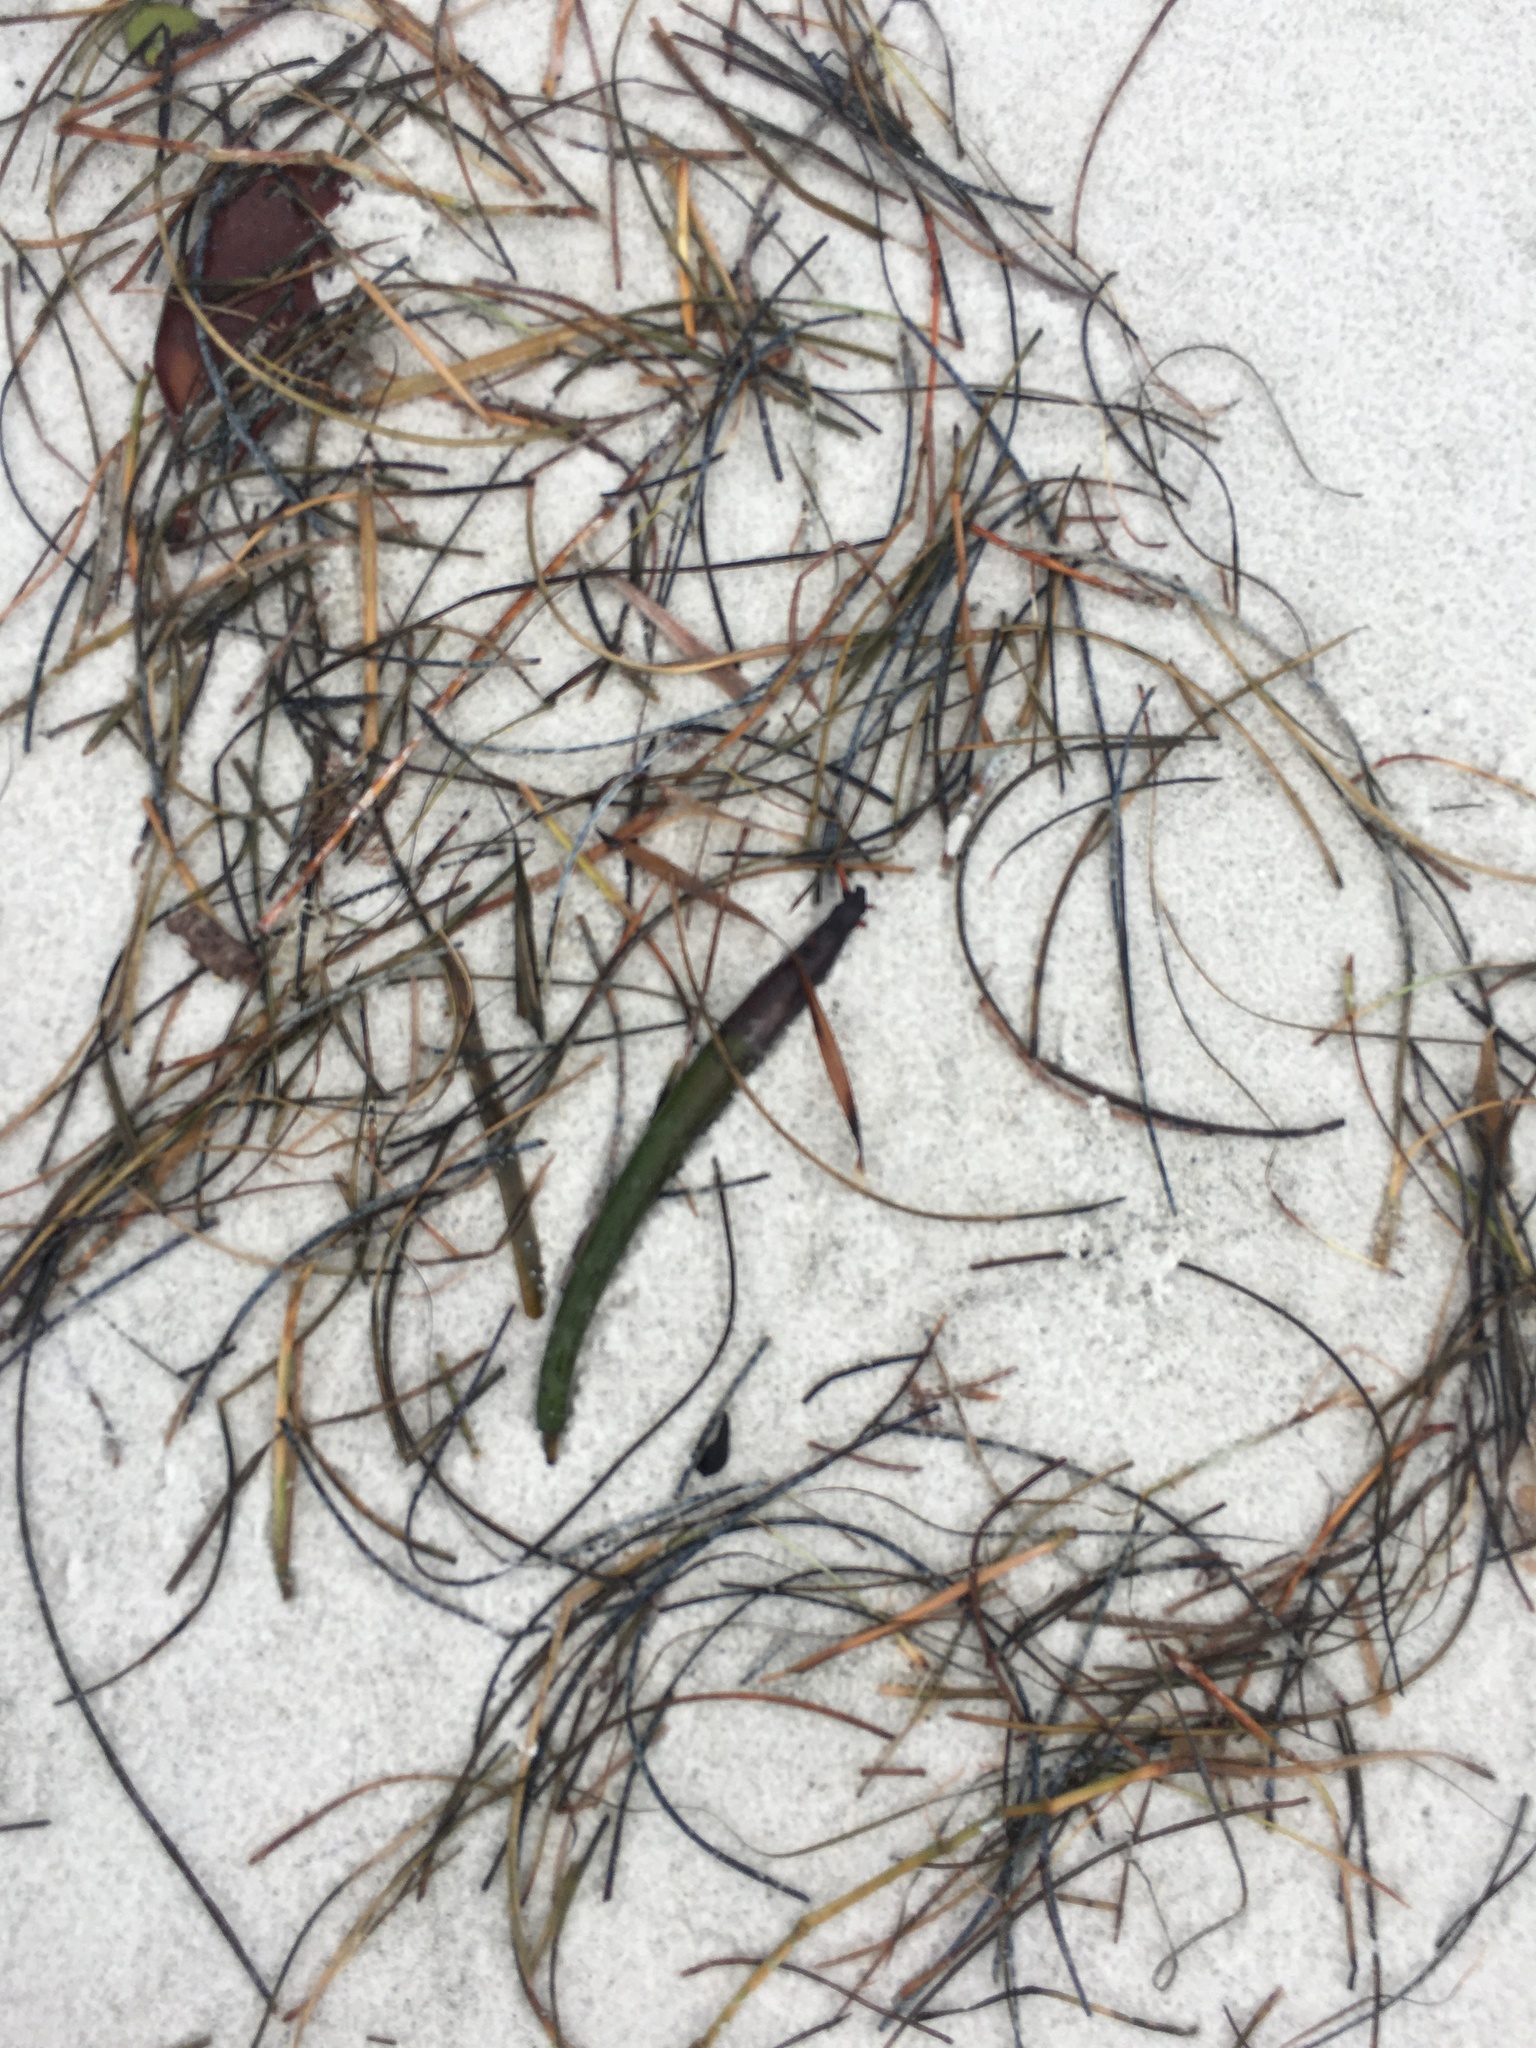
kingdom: Plantae
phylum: Tracheophyta
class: Liliopsida
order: Alismatales
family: Hydrocharitaceae
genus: Thalassia
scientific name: Thalassia testudinum
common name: Species code: tt
